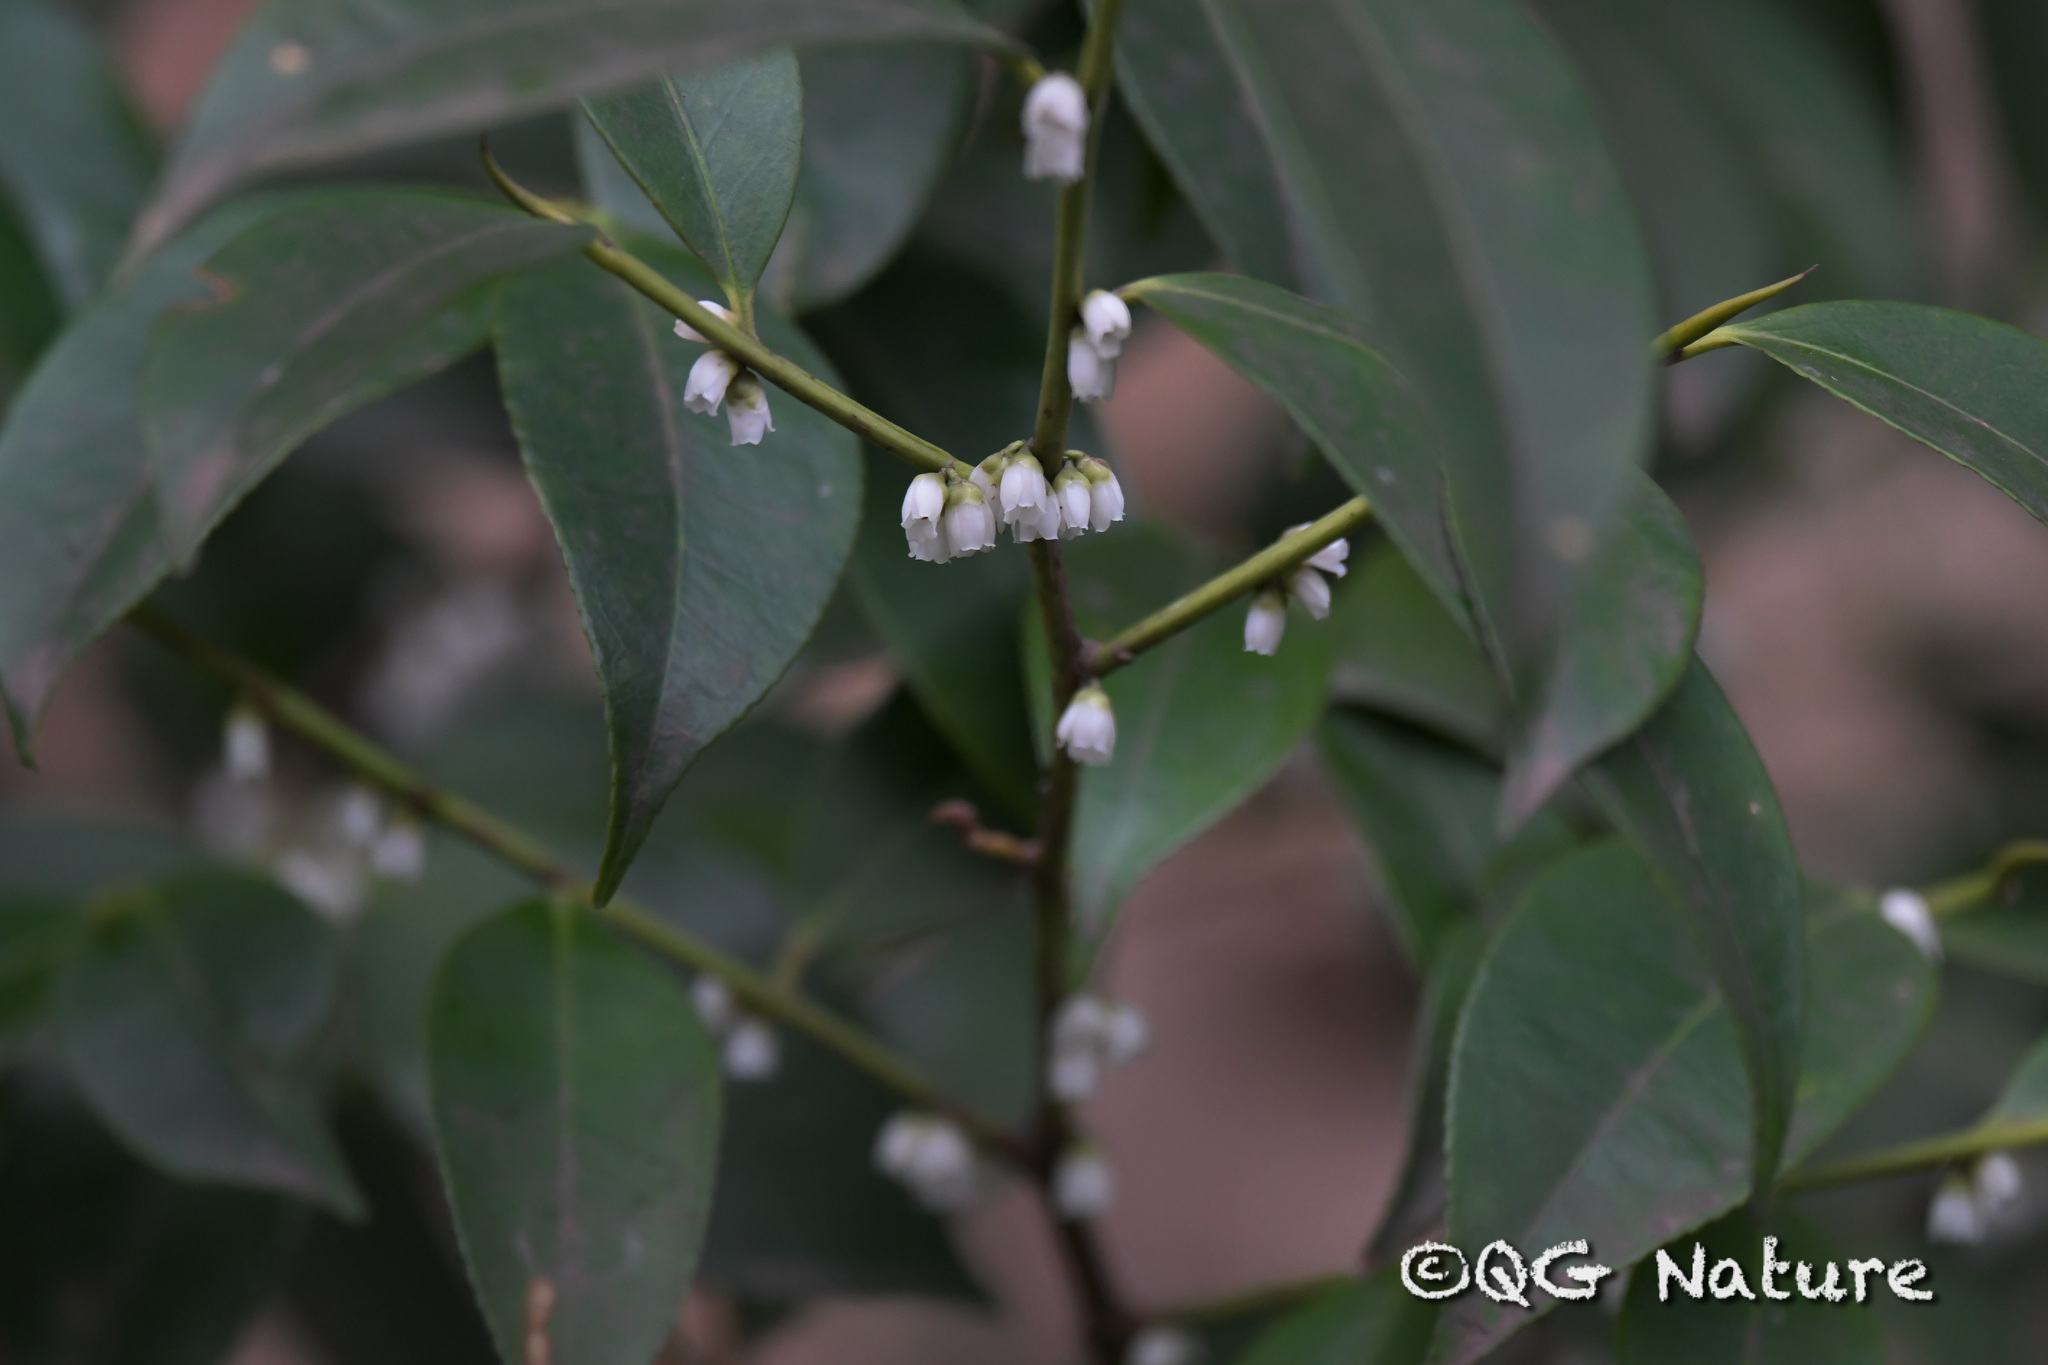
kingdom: Plantae
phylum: Tracheophyta
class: Magnoliopsida
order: Ericales
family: Pentaphylacaceae
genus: Eurya
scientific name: Eurya muricata
